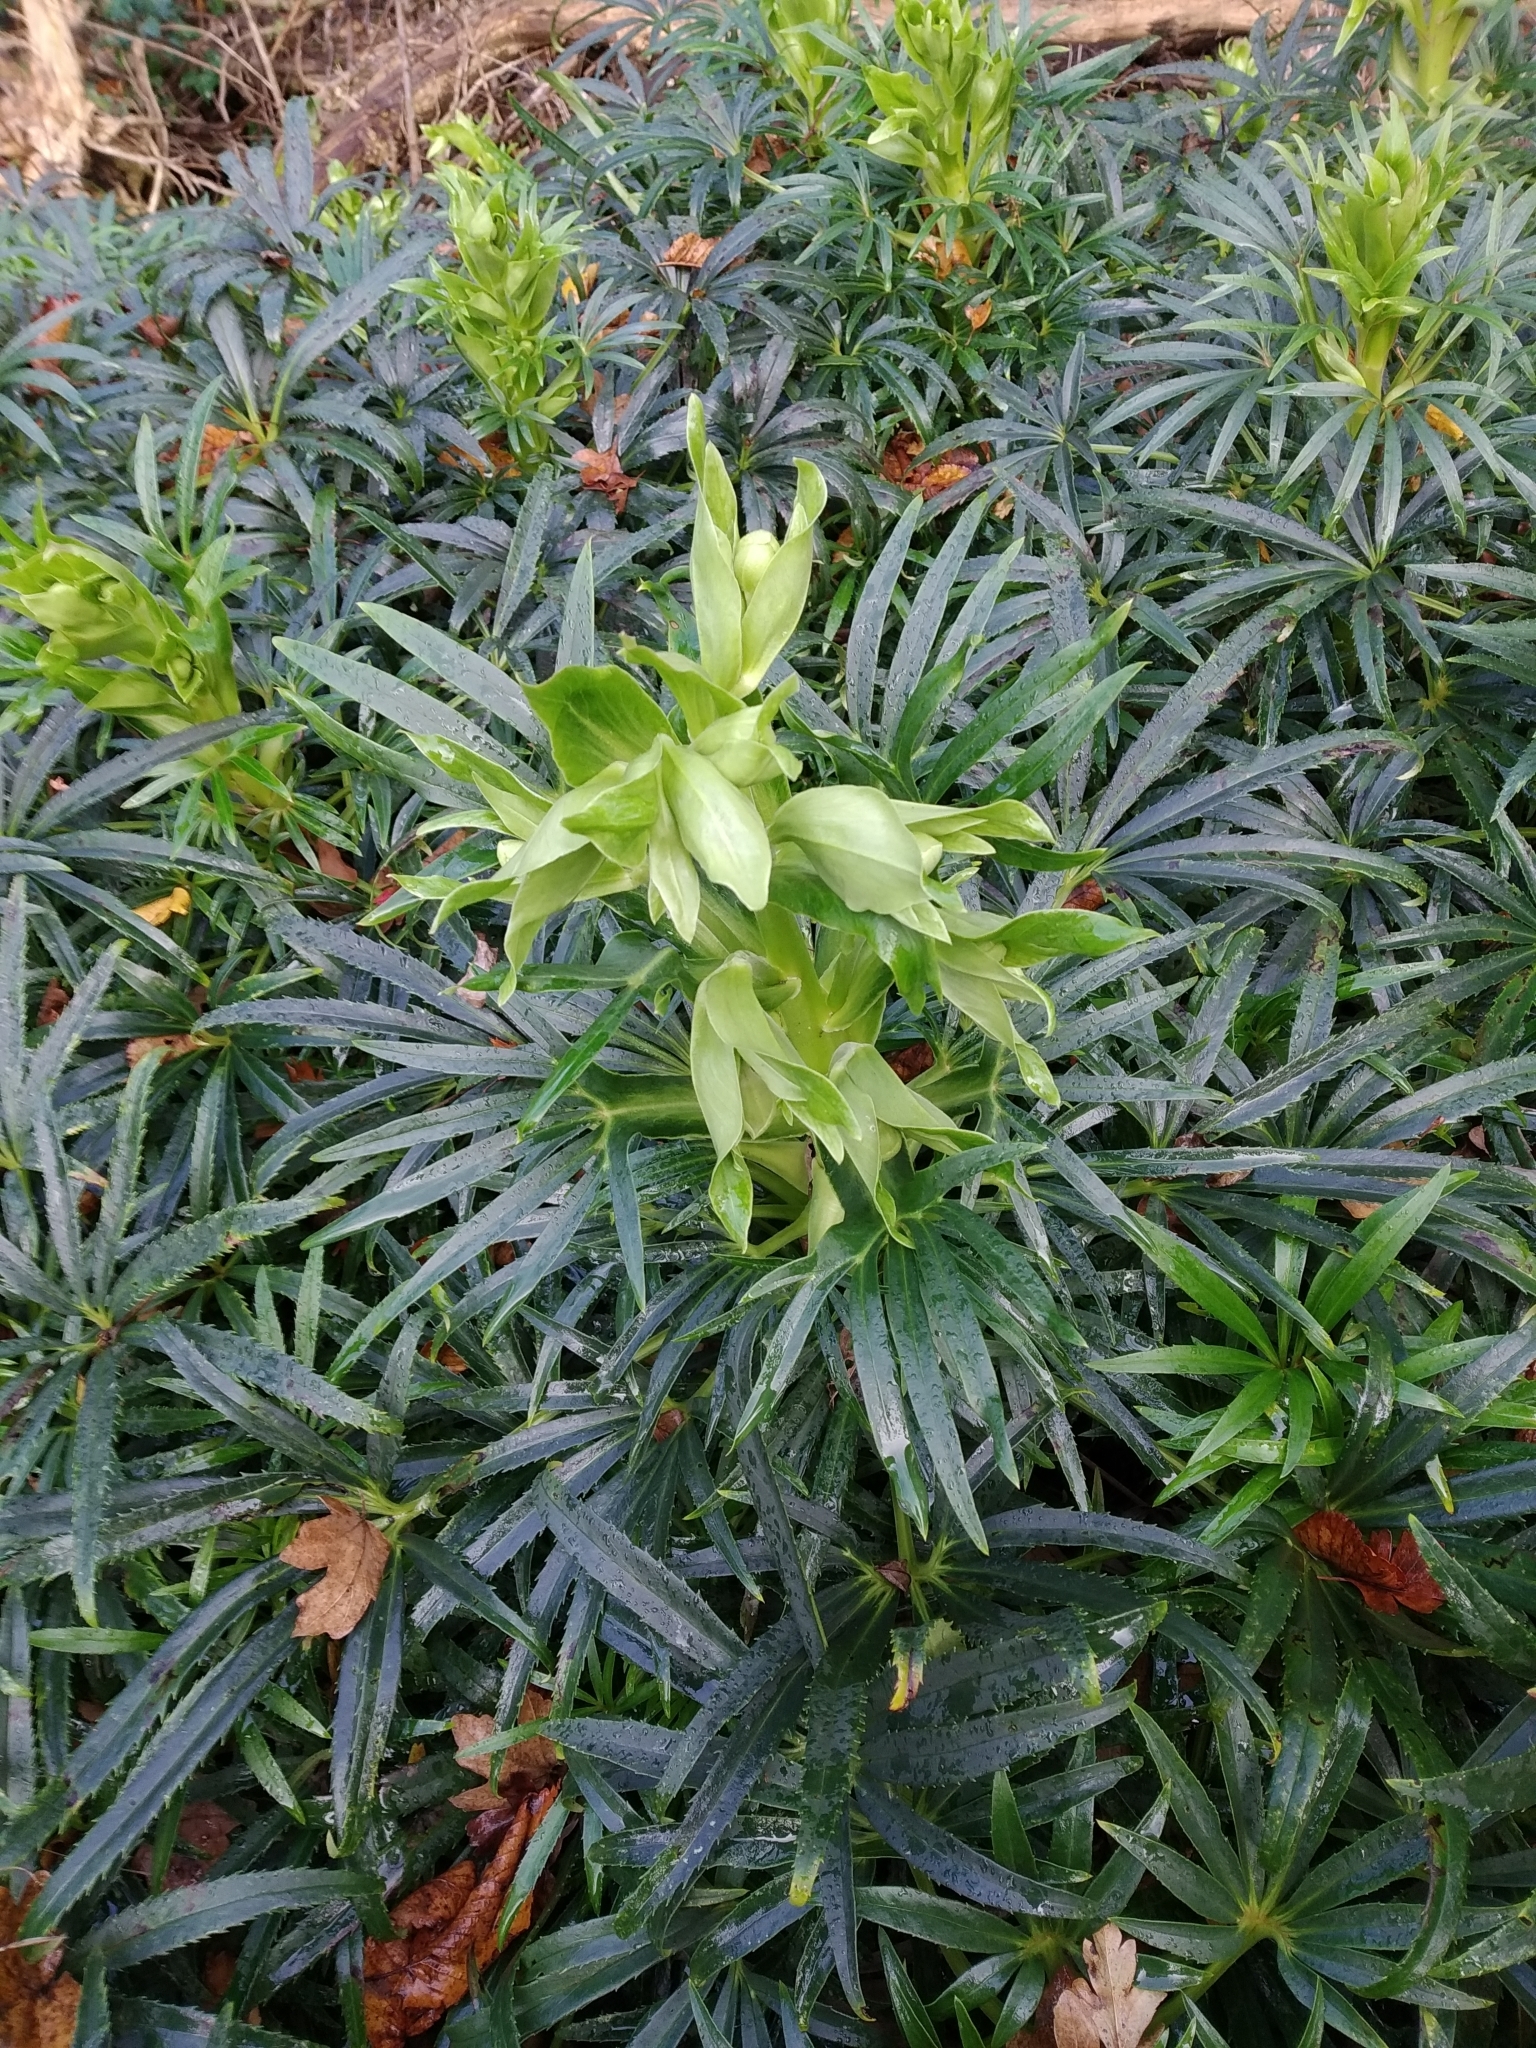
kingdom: Plantae
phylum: Tracheophyta
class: Magnoliopsida
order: Ranunculales
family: Ranunculaceae
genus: Helleborus
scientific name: Helleborus foetidus
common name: Stinking hellebore
